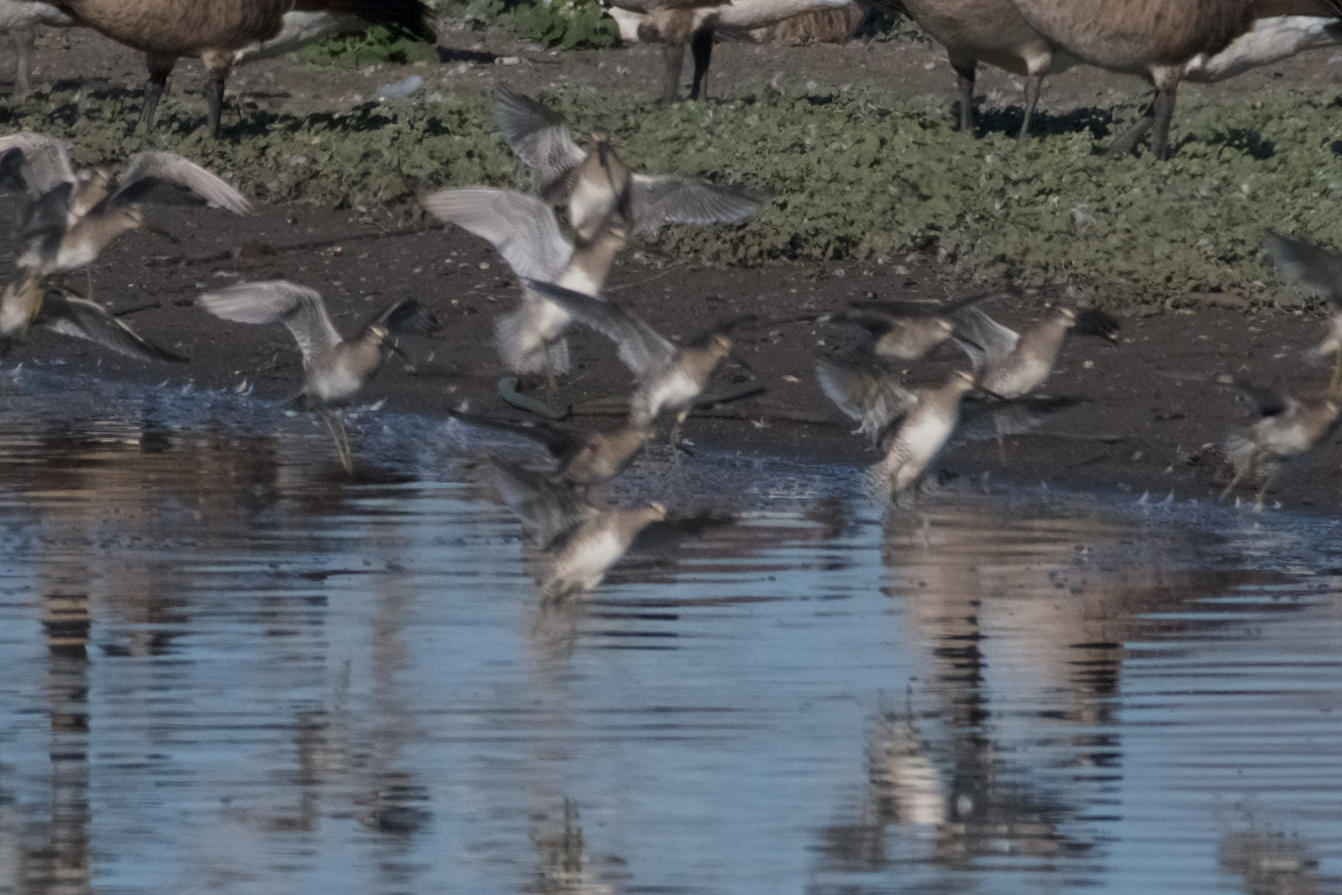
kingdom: Animalia
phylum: Chordata
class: Aves
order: Charadriiformes
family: Scolopacidae
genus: Limnodromus
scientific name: Limnodromus scolopaceus
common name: Long-billed dowitcher
